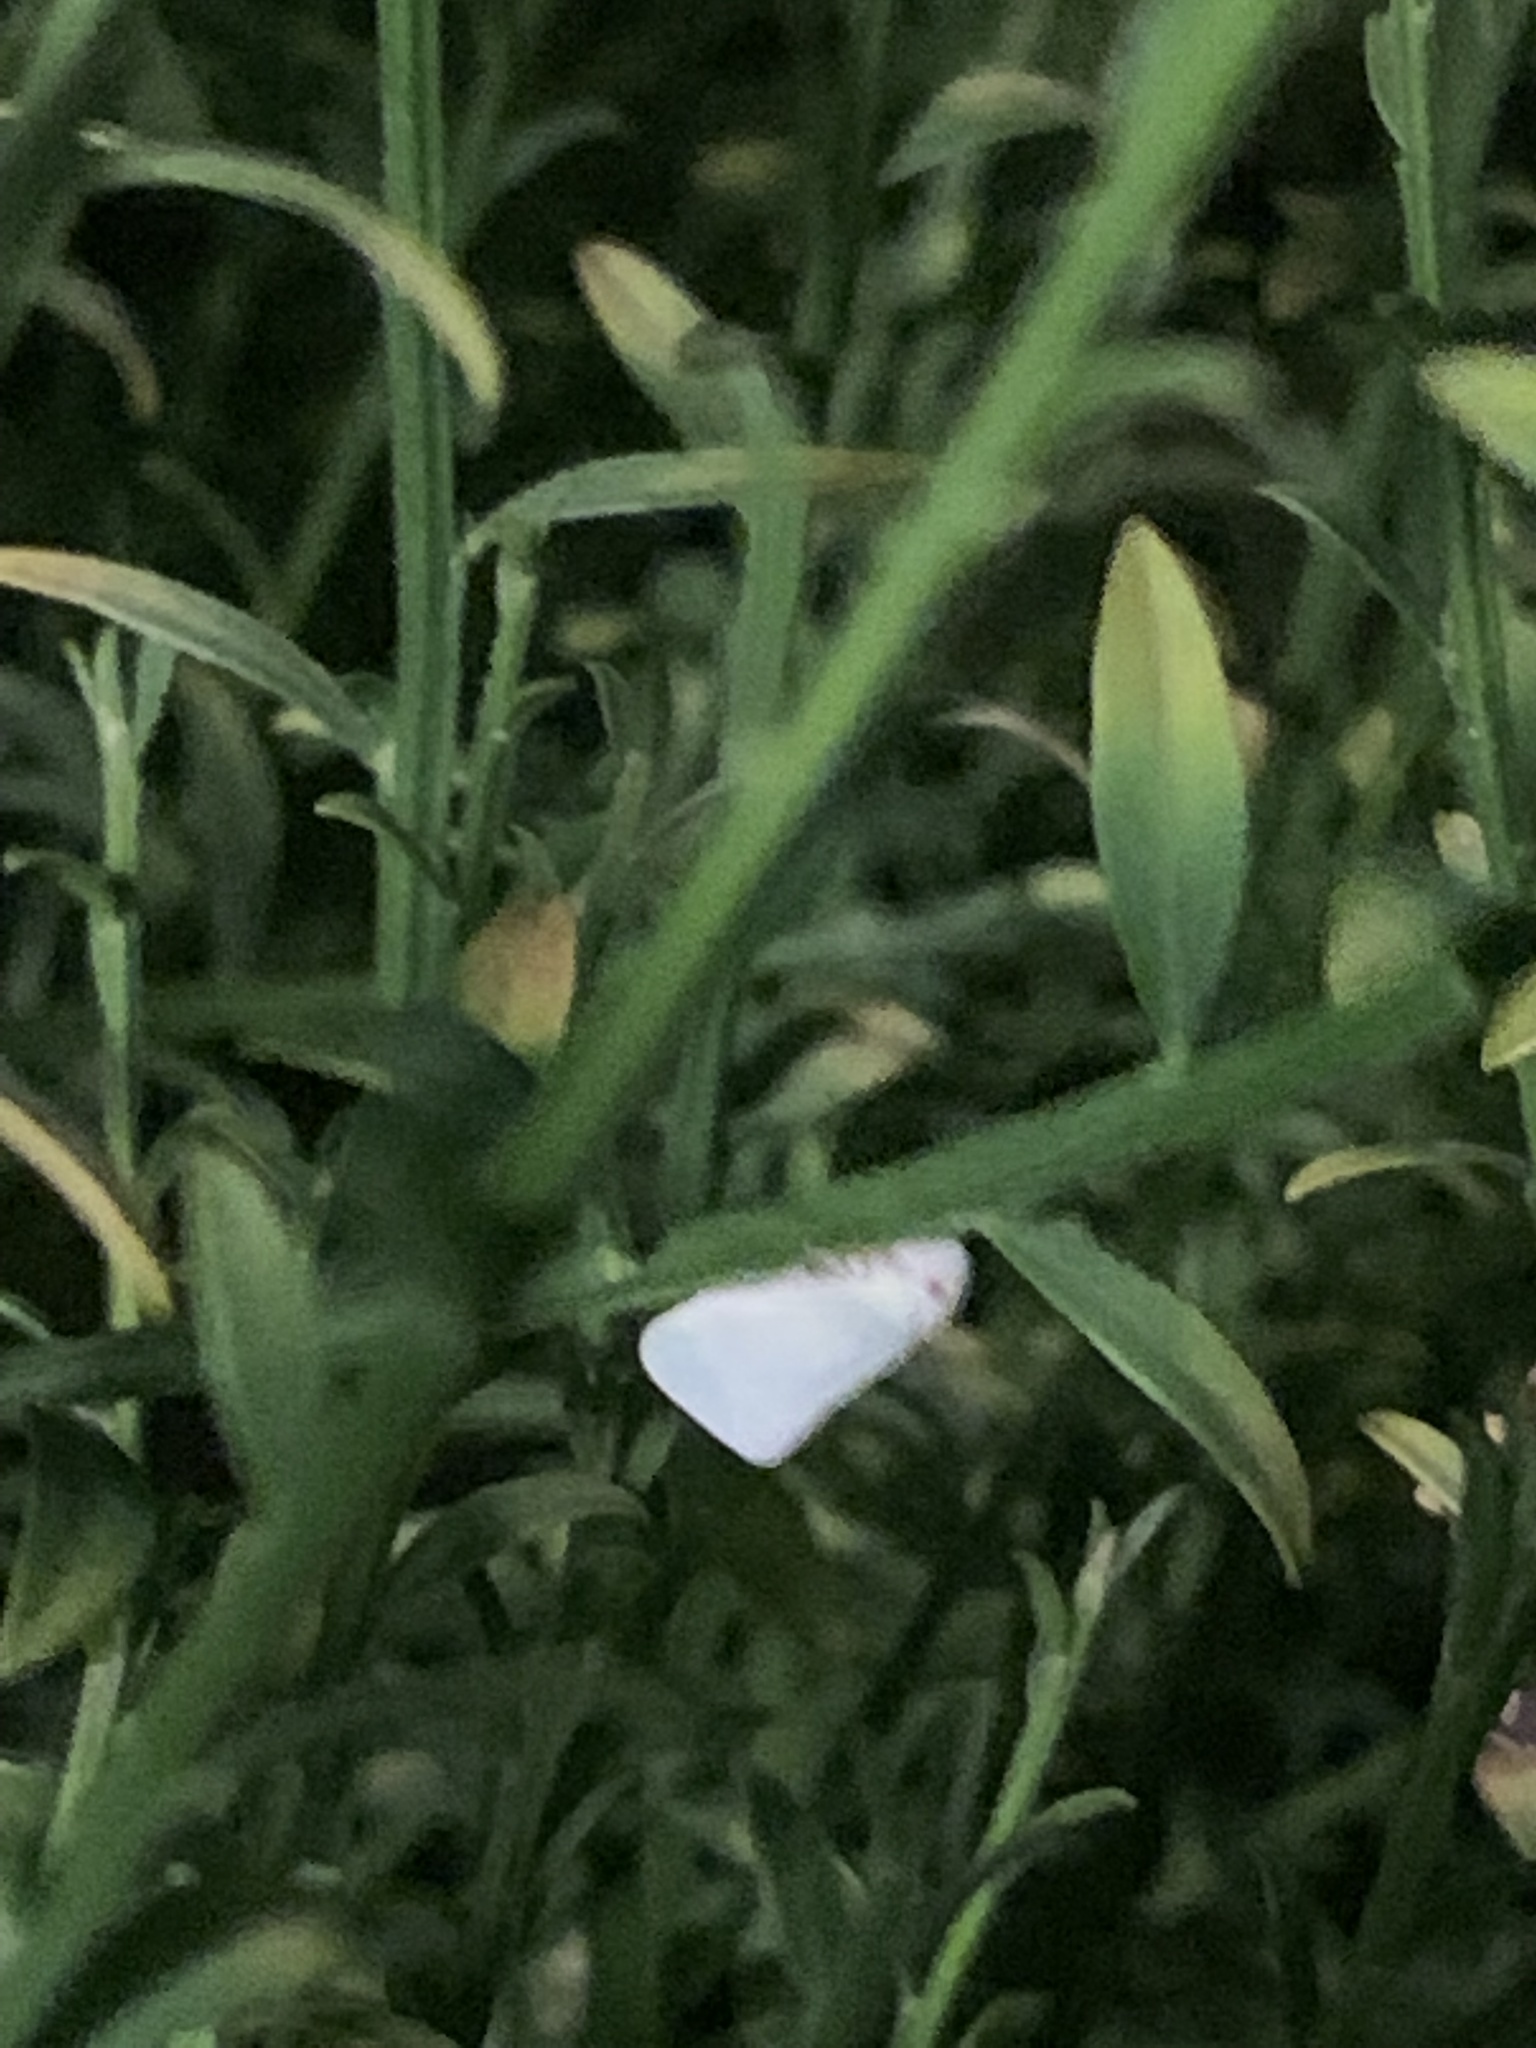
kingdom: Animalia
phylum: Arthropoda
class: Insecta
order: Hemiptera
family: Flatidae
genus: Flatormenis
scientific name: Flatormenis proxima
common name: Northern flatid planthopper
